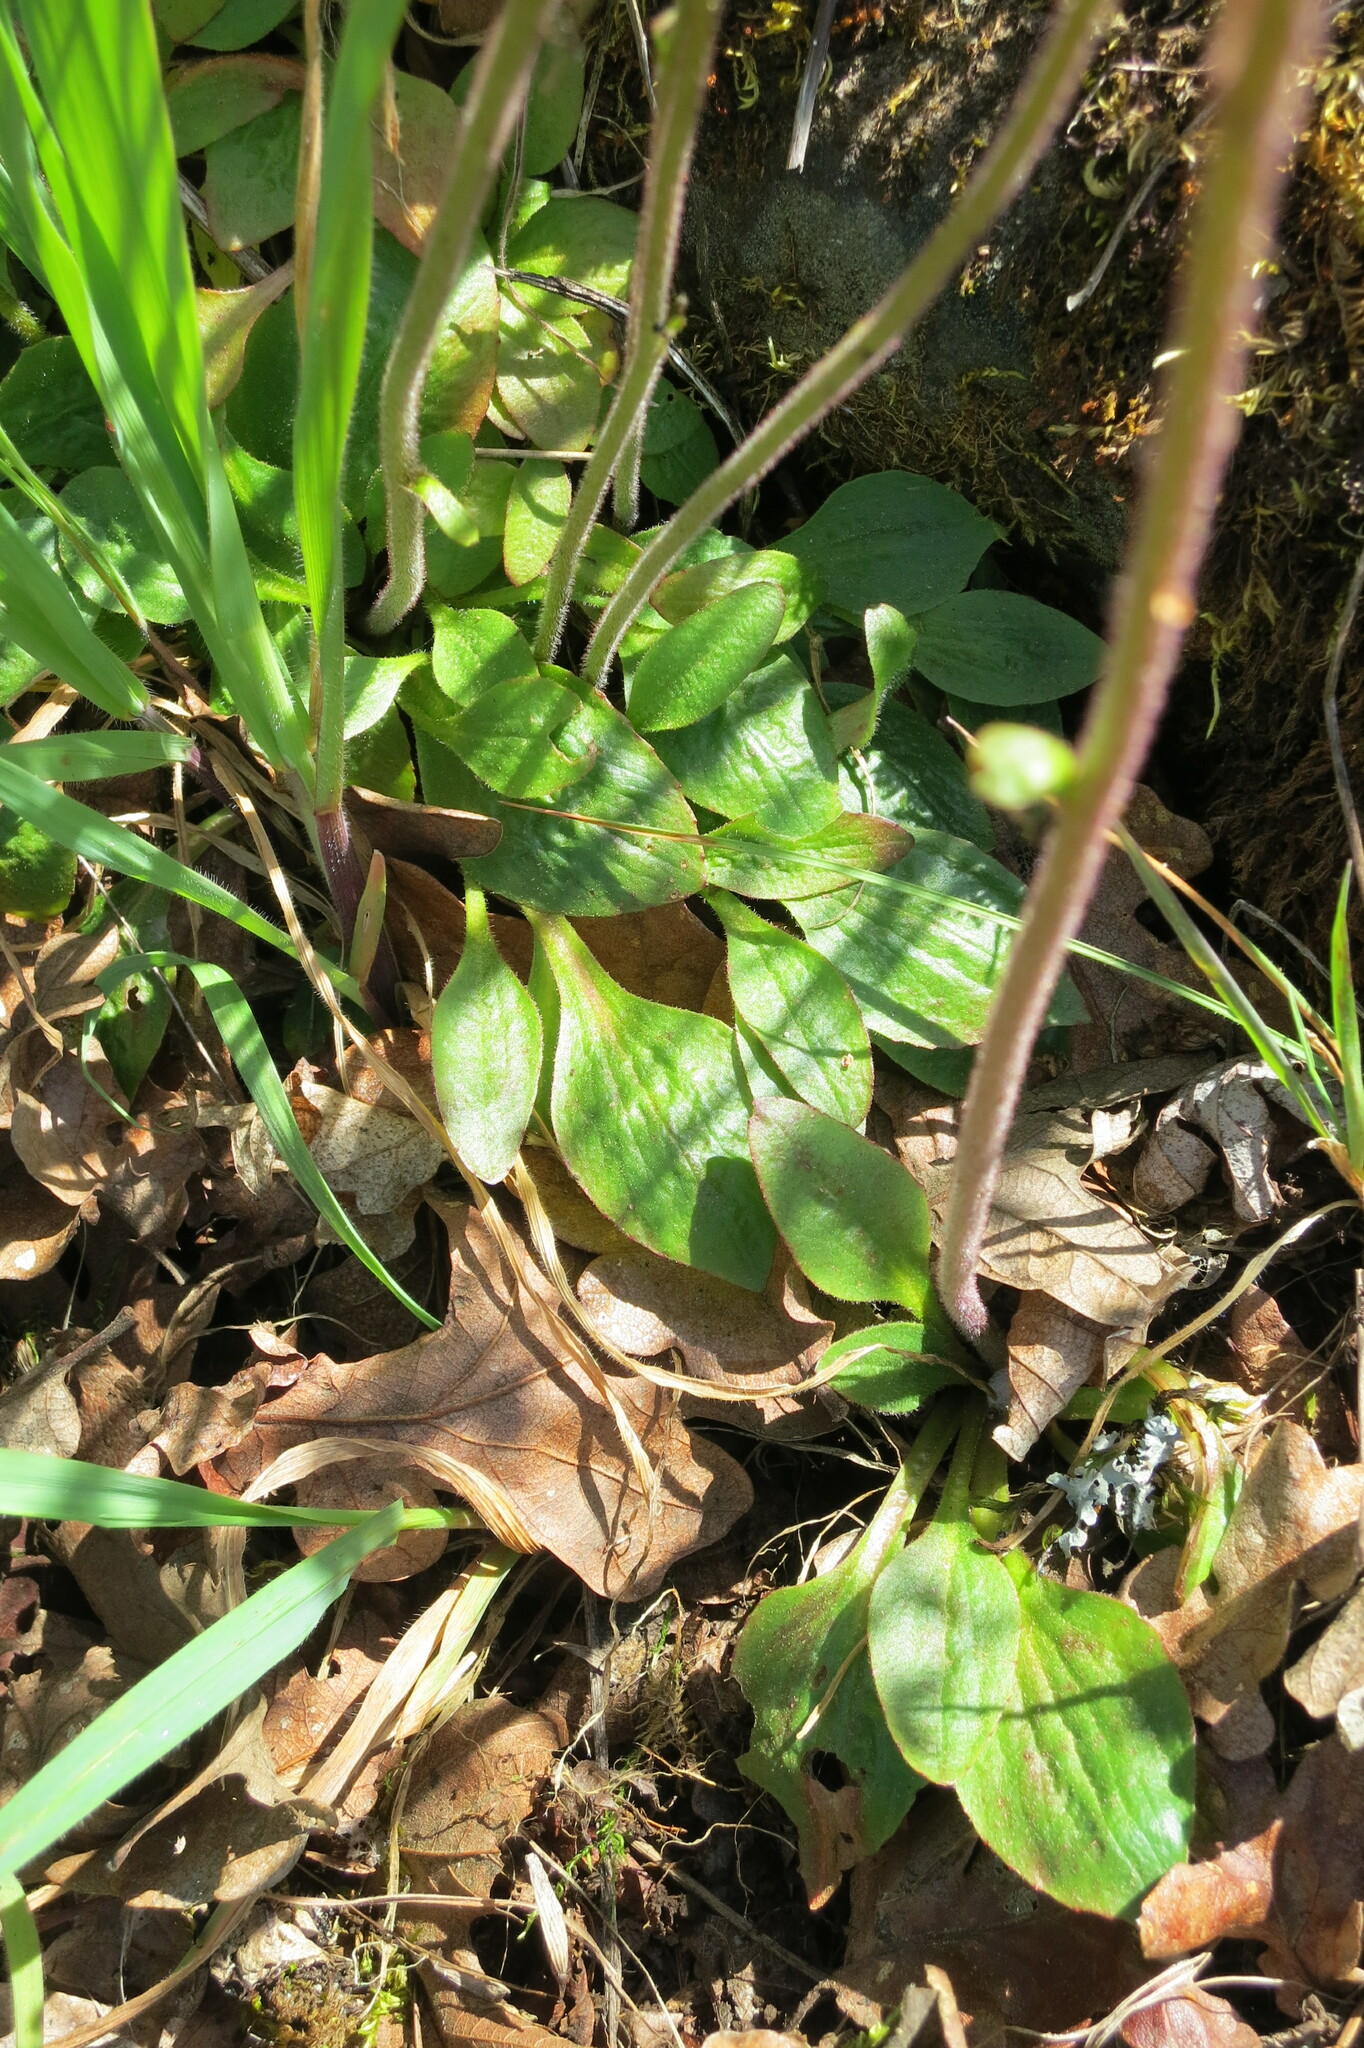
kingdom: Plantae
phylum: Tracheophyta
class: Magnoliopsida
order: Saxifragales
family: Saxifragaceae
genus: Micranthes
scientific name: Micranthes integrifolia
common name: Wholeleaf saxifrage
